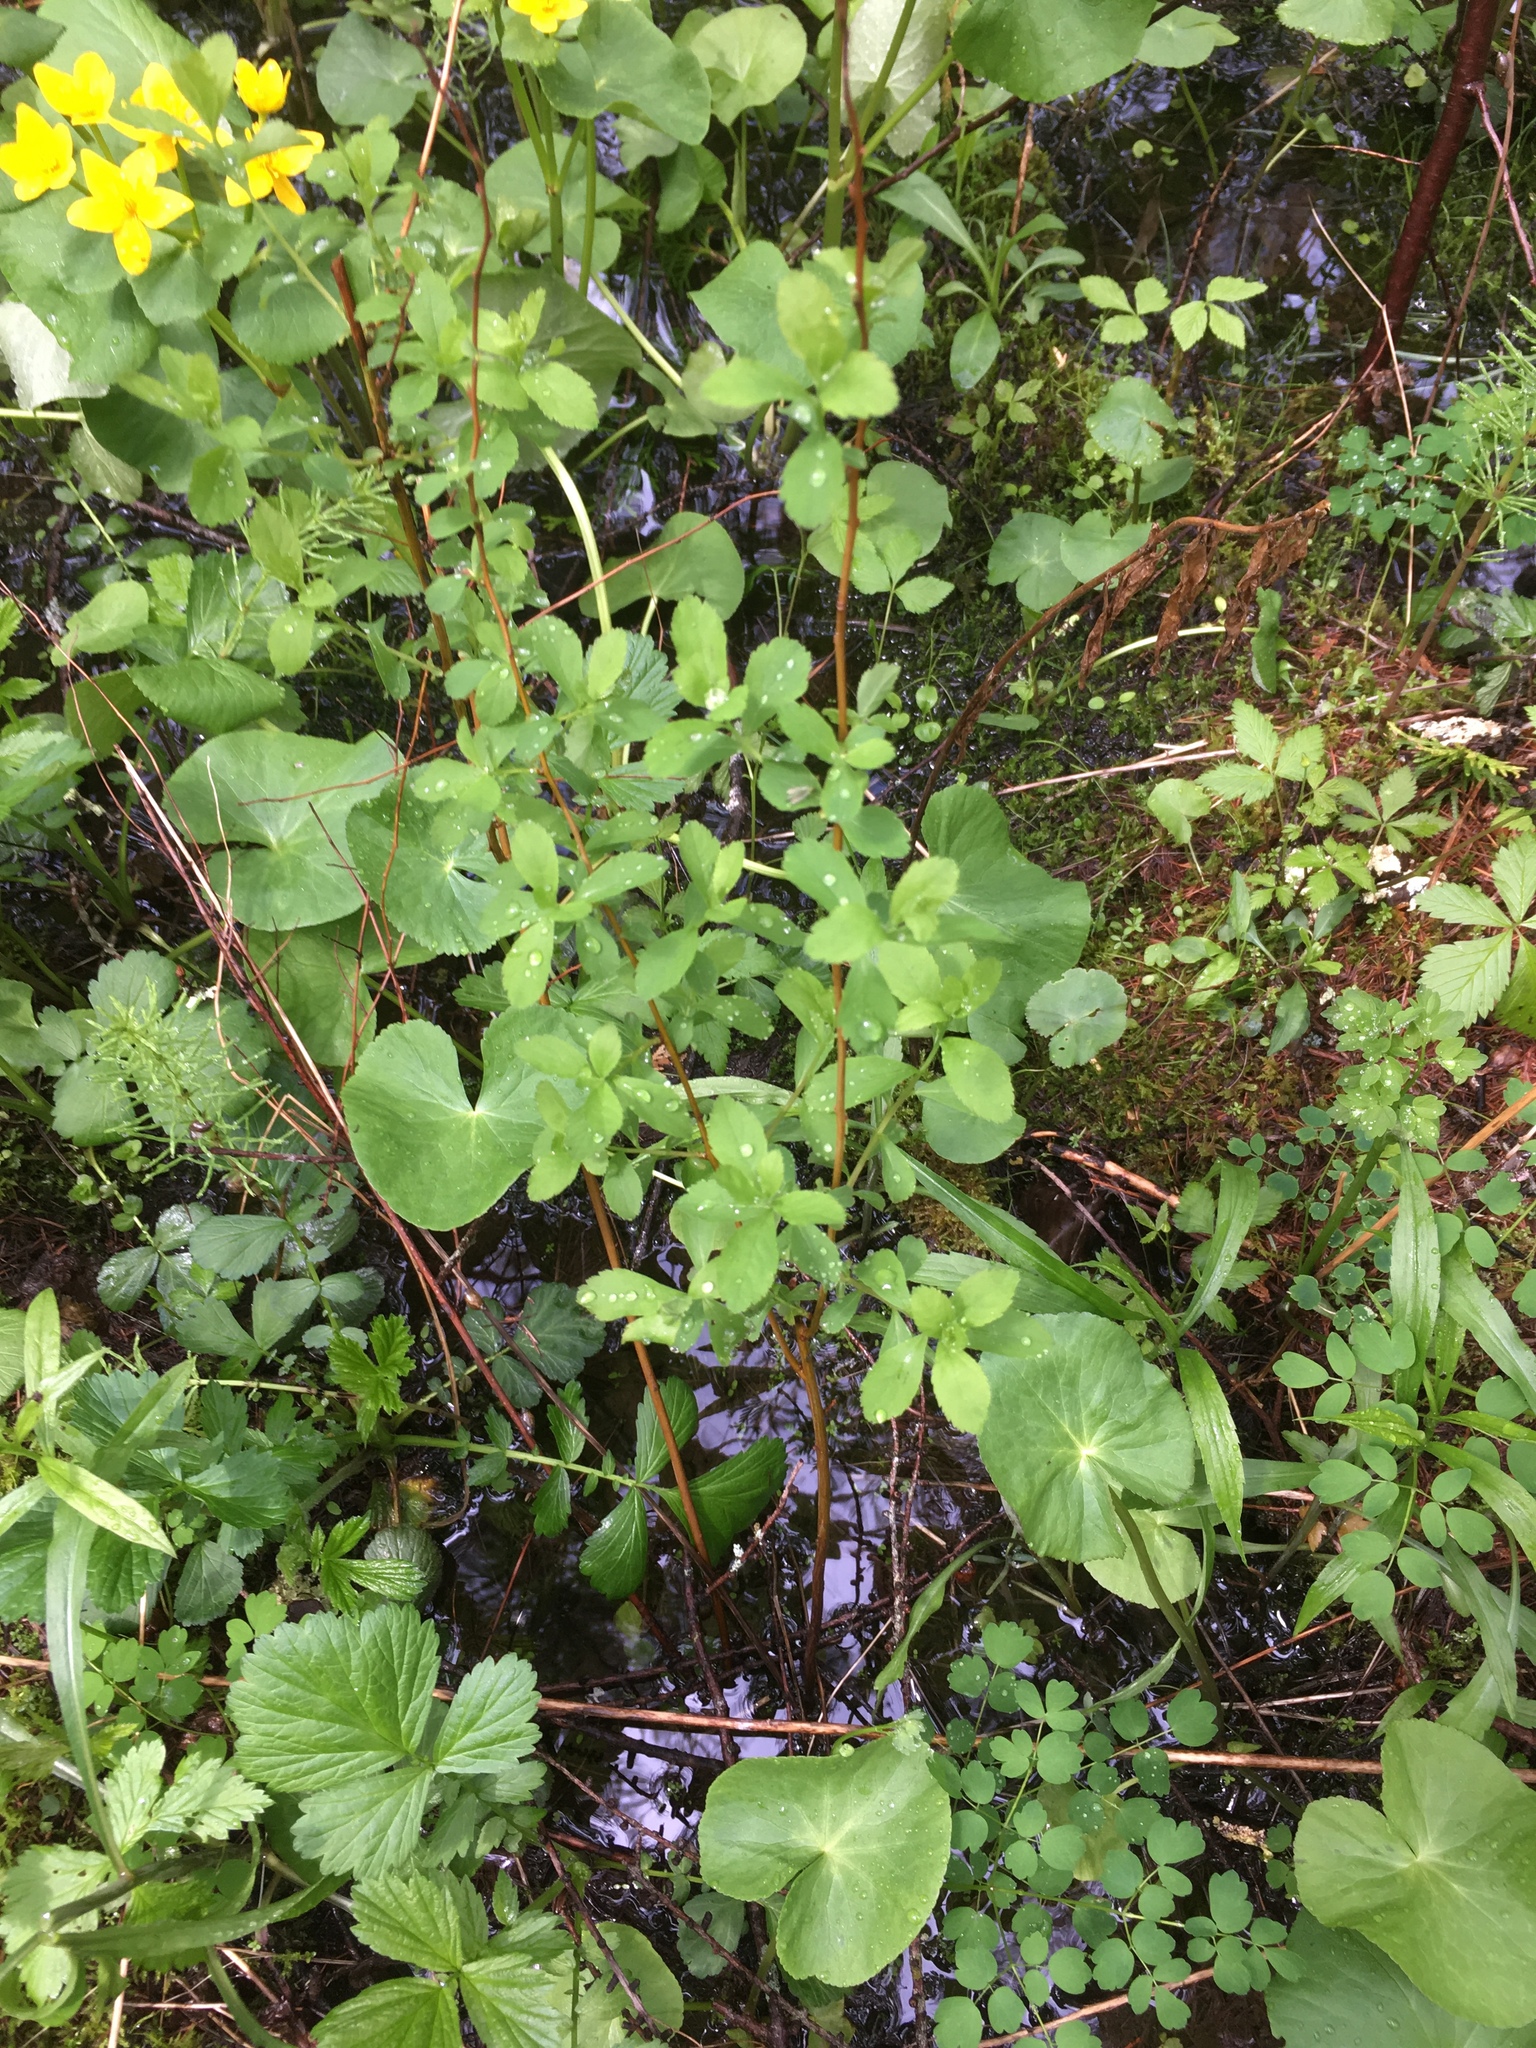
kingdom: Plantae
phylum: Tracheophyta
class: Magnoliopsida
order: Rosales
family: Rosaceae
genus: Spiraea
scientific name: Spiraea alba
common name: Pale bridewort
